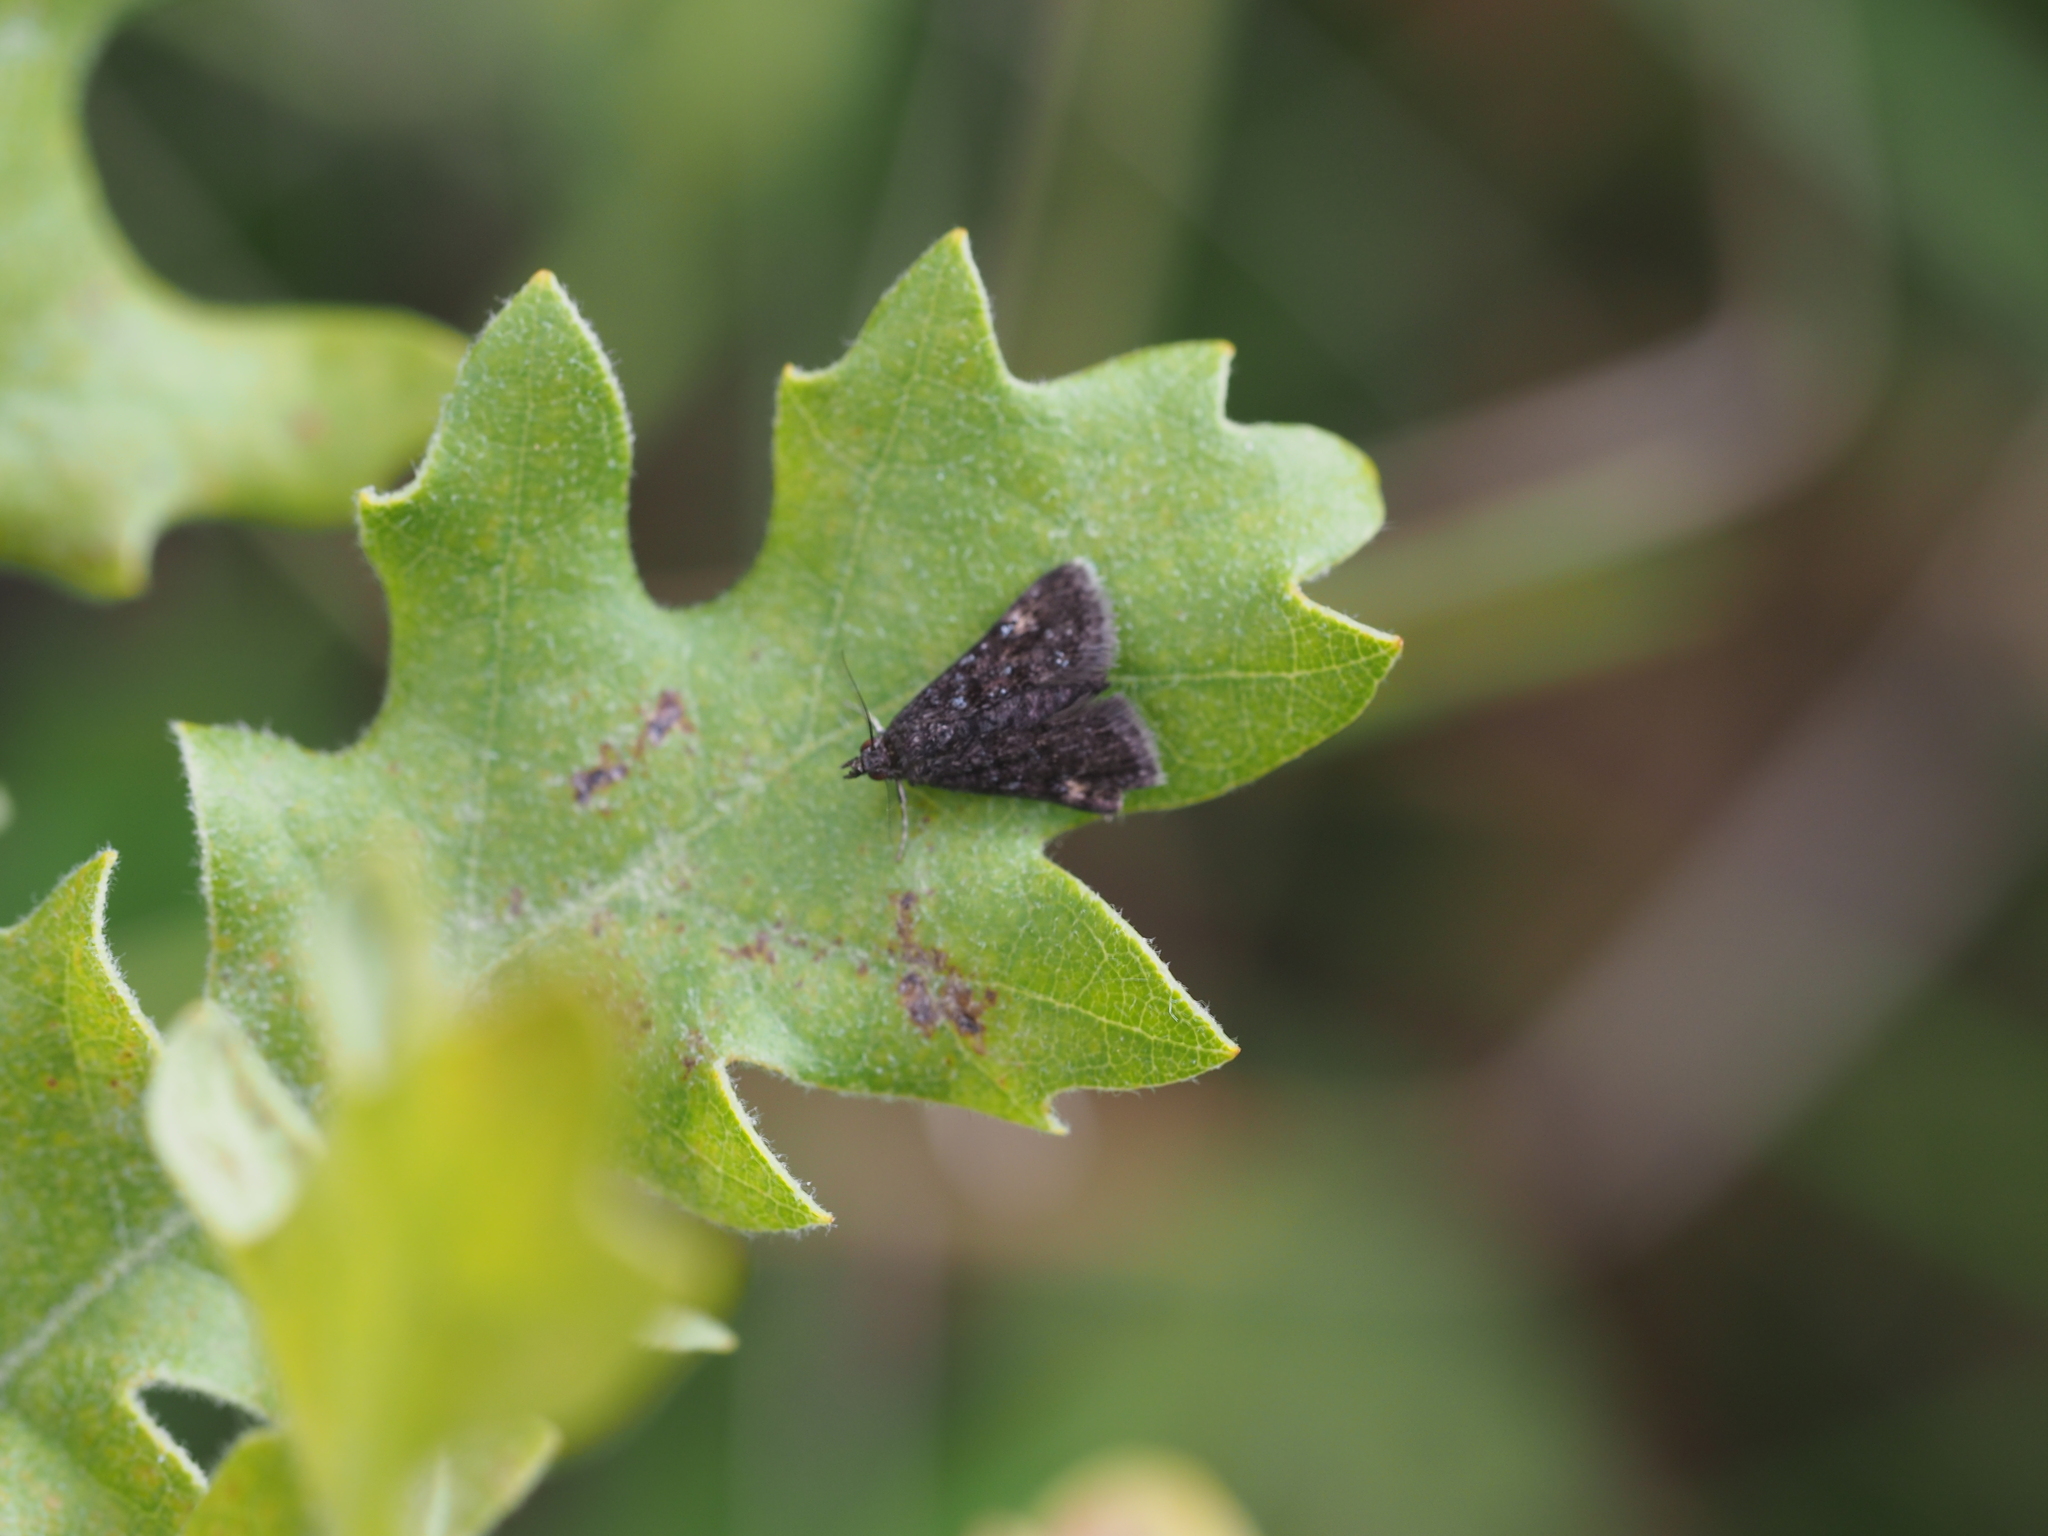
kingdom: Animalia
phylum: Arthropoda
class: Insecta
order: Lepidoptera
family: Crambidae
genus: Heliothela
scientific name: Heliothela wulfeniana
